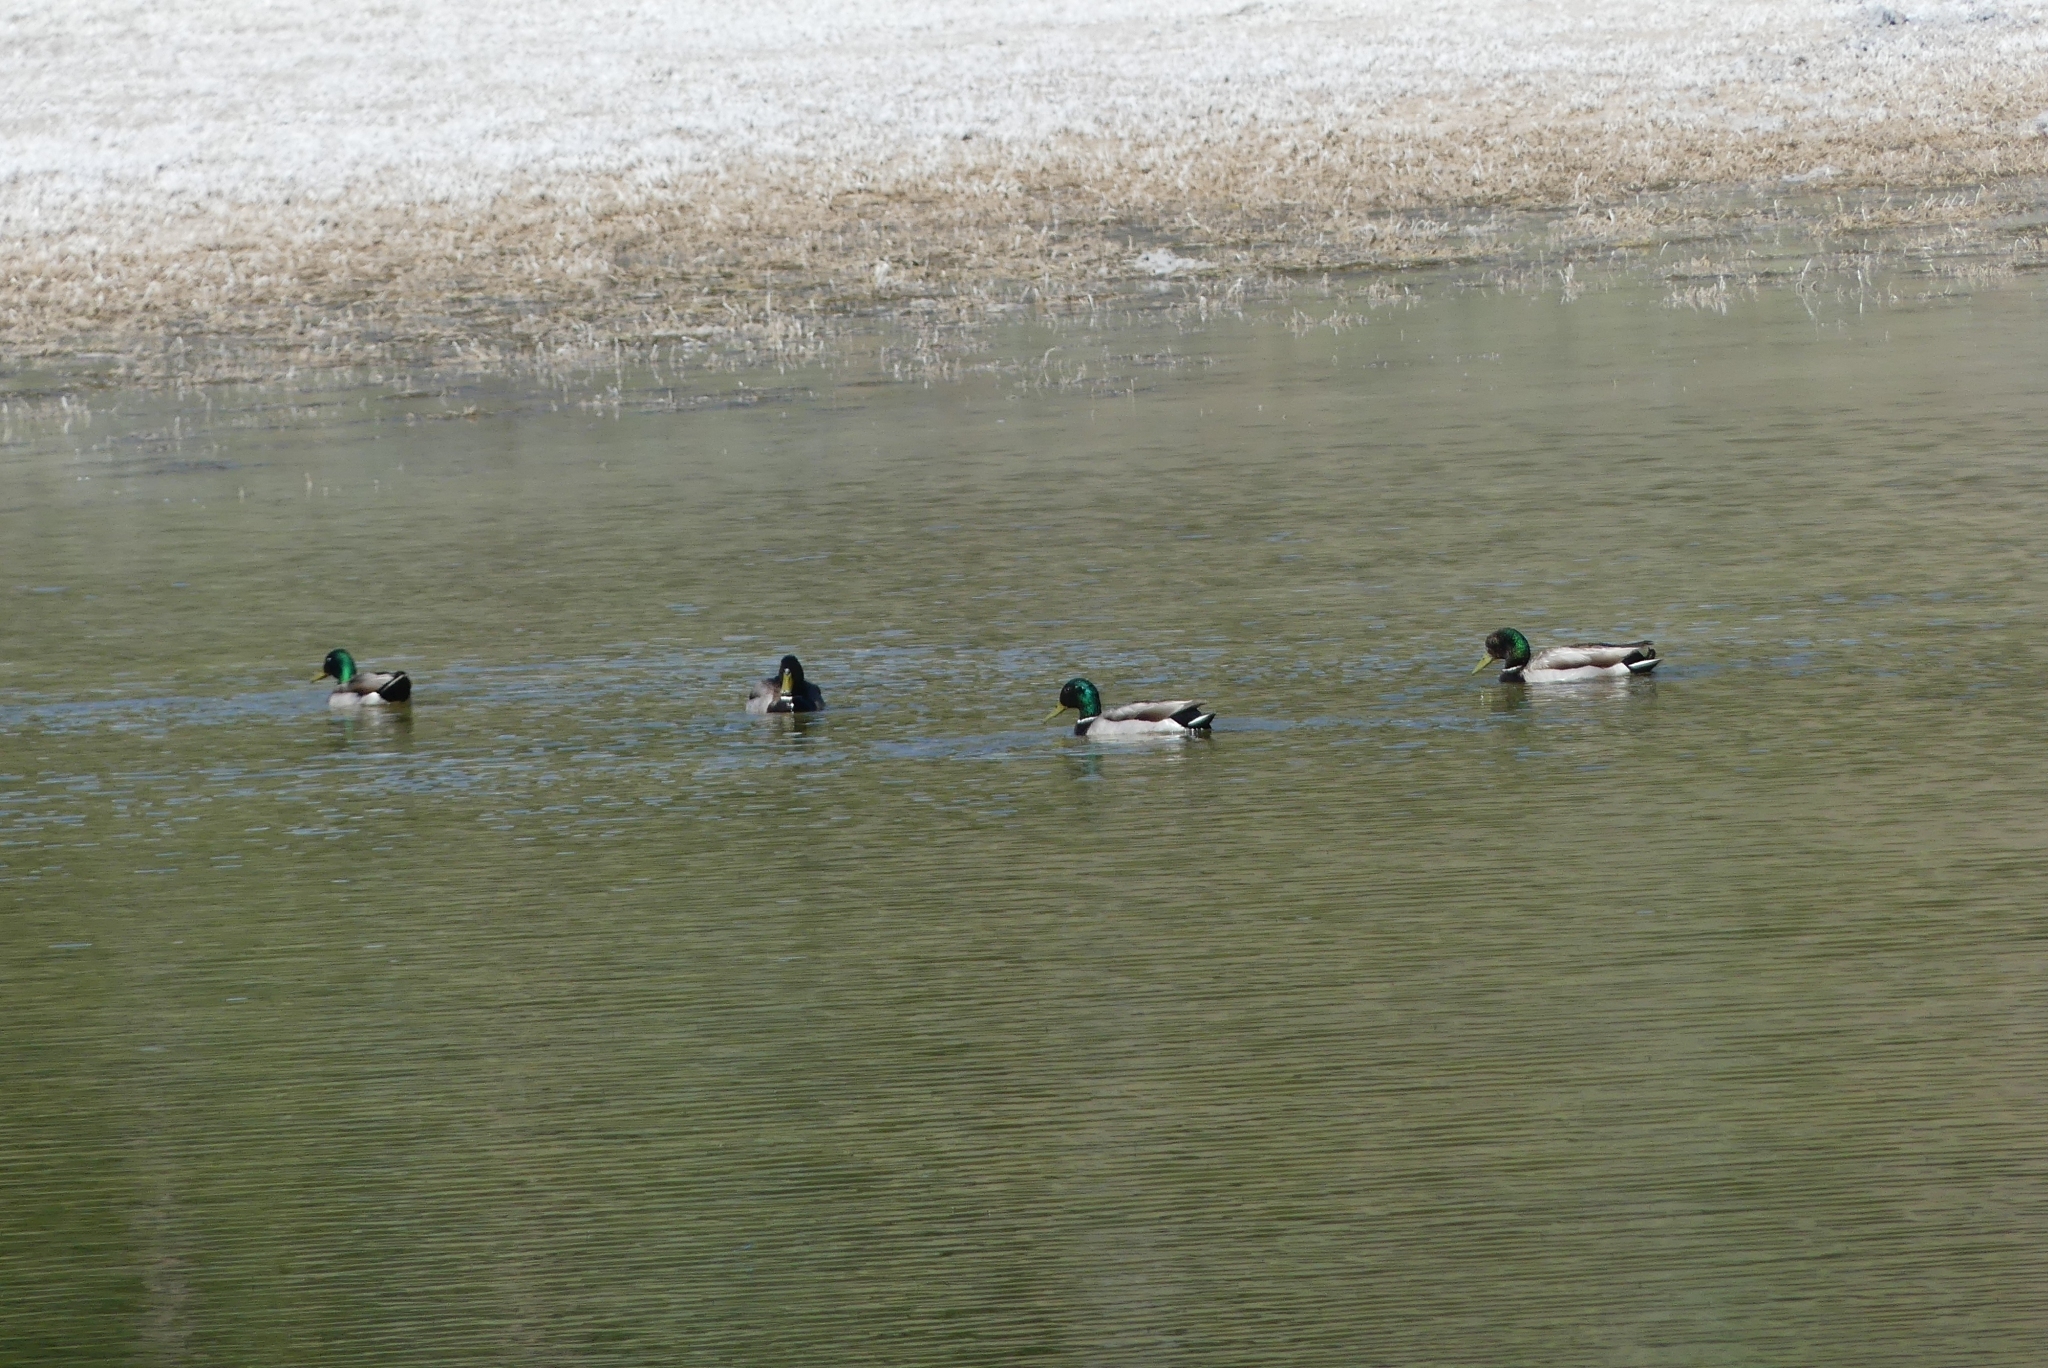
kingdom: Animalia
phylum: Chordata
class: Aves
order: Anseriformes
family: Anatidae
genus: Anas
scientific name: Anas platyrhynchos
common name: Mallard
